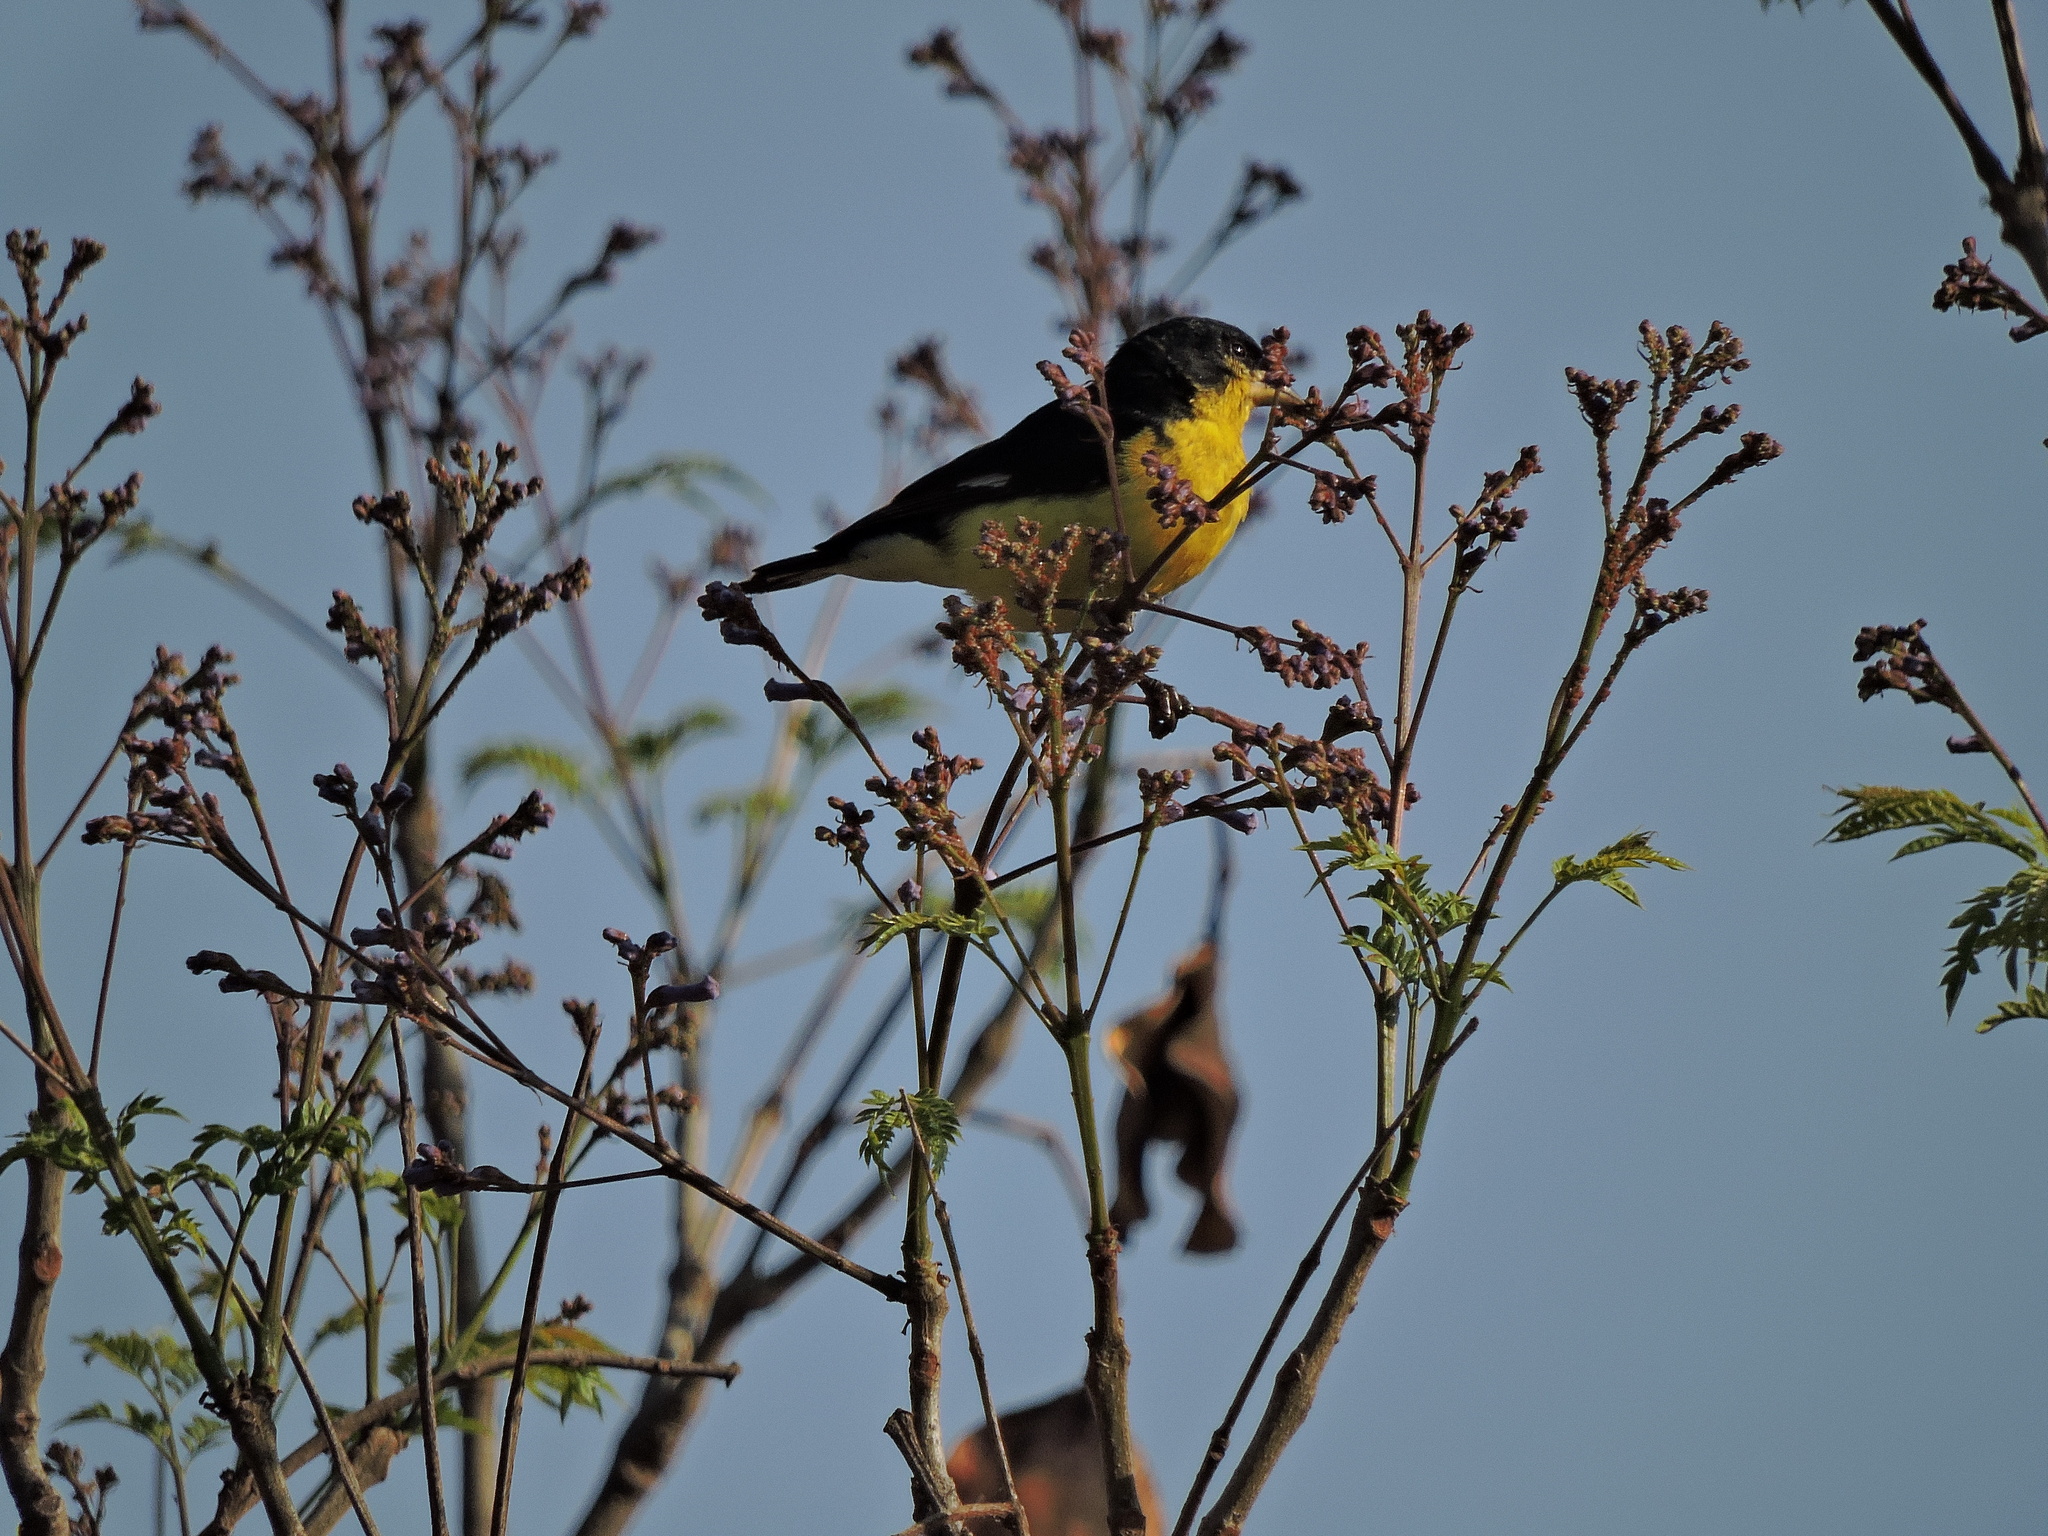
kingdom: Animalia
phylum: Chordata
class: Aves
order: Passeriformes
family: Fringillidae
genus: Spinus
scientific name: Spinus psaltria
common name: Lesser goldfinch
